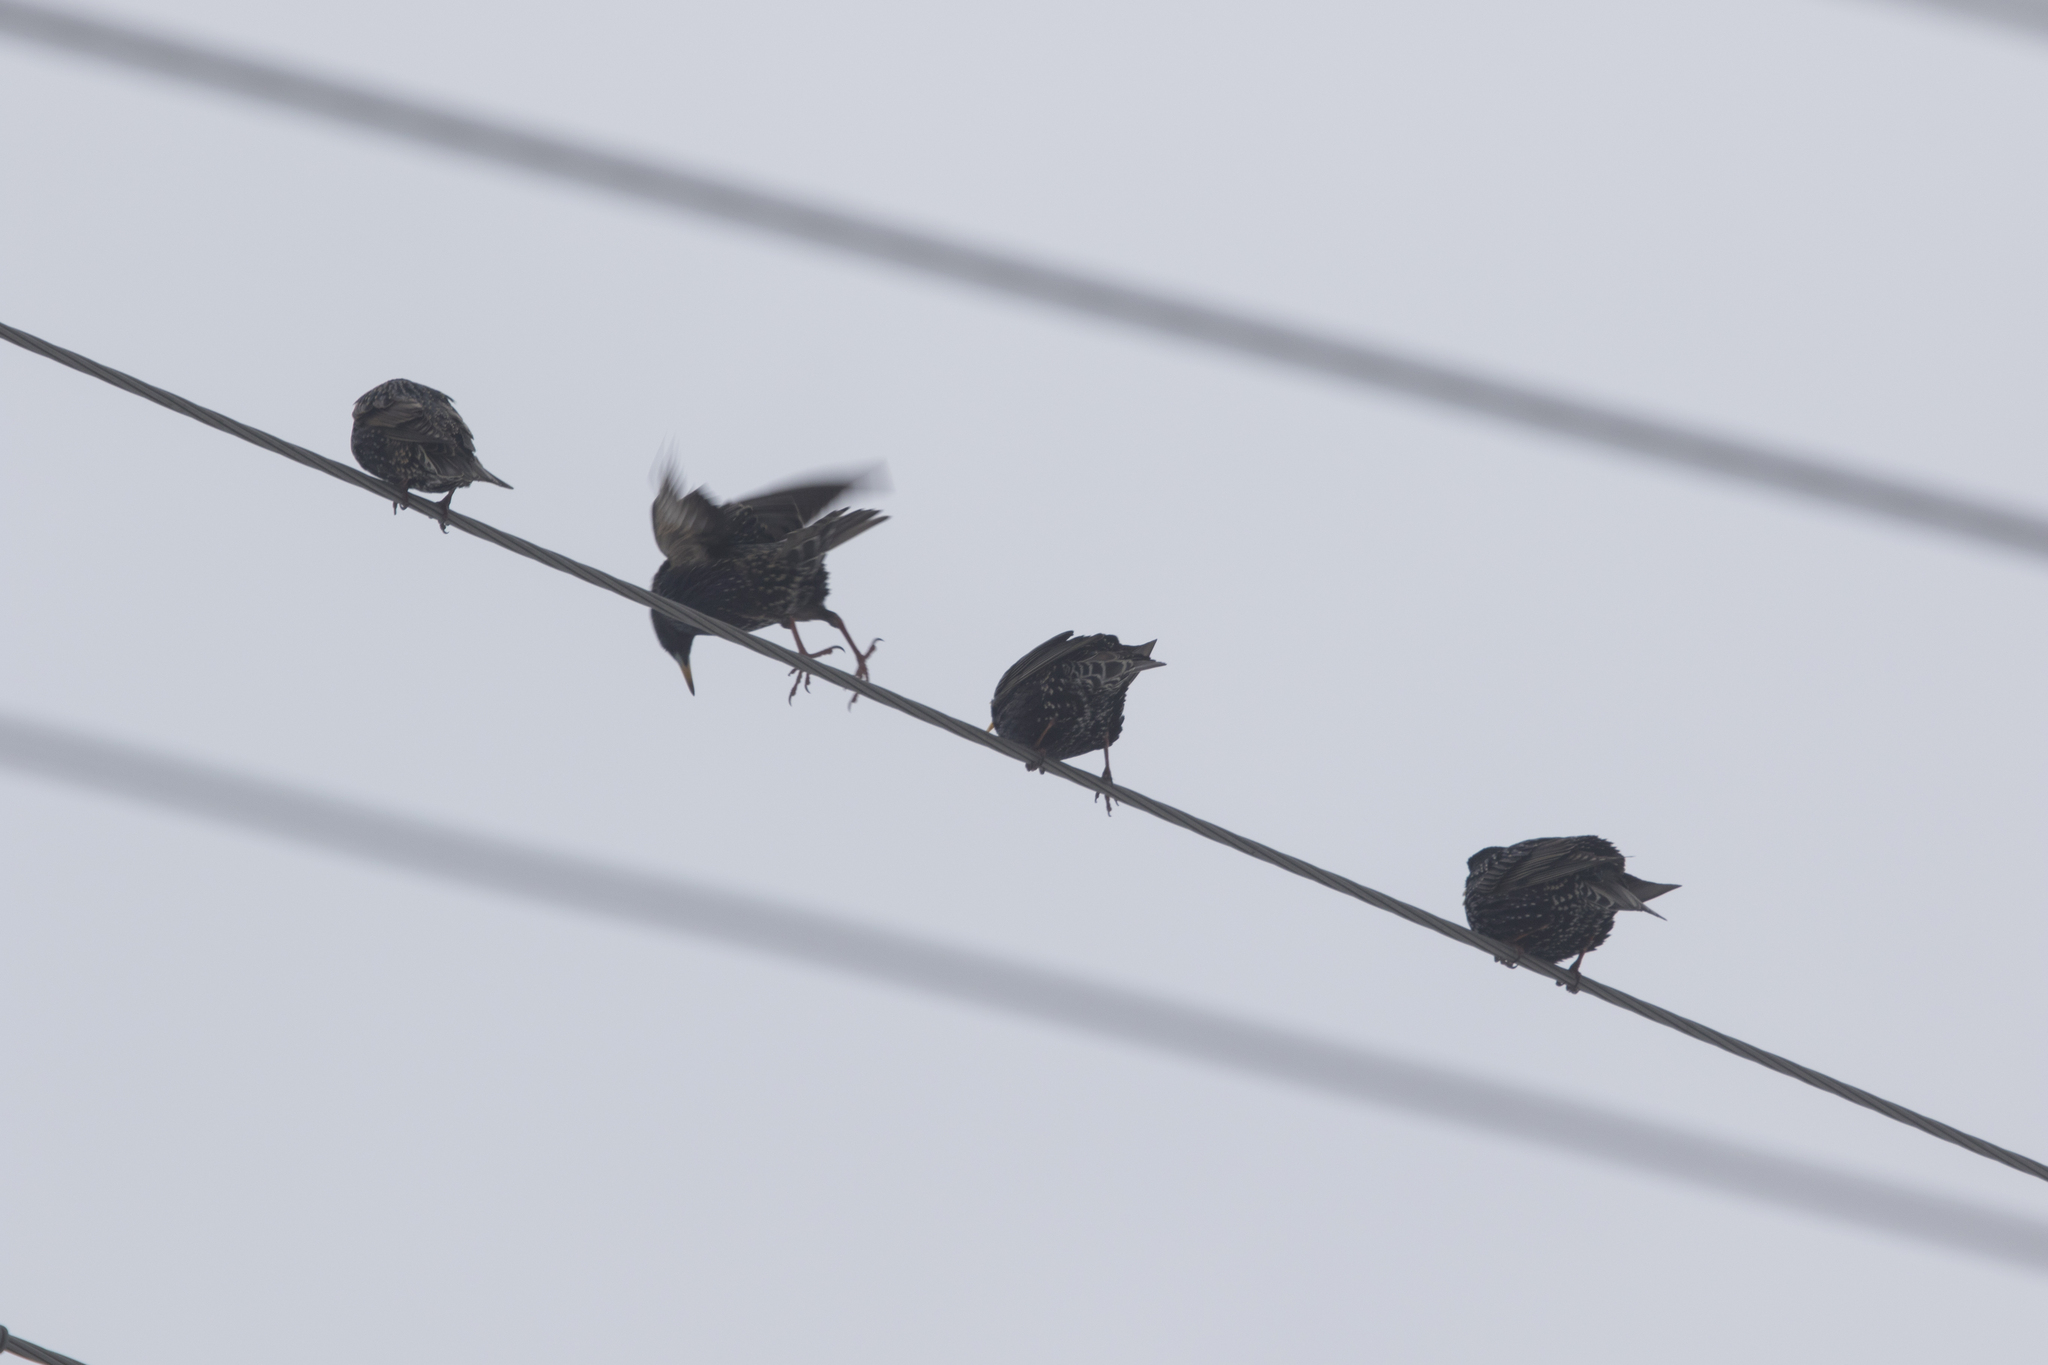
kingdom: Animalia
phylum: Chordata
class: Aves
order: Passeriformes
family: Sturnidae
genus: Sturnus
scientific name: Sturnus vulgaris
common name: Common starling
